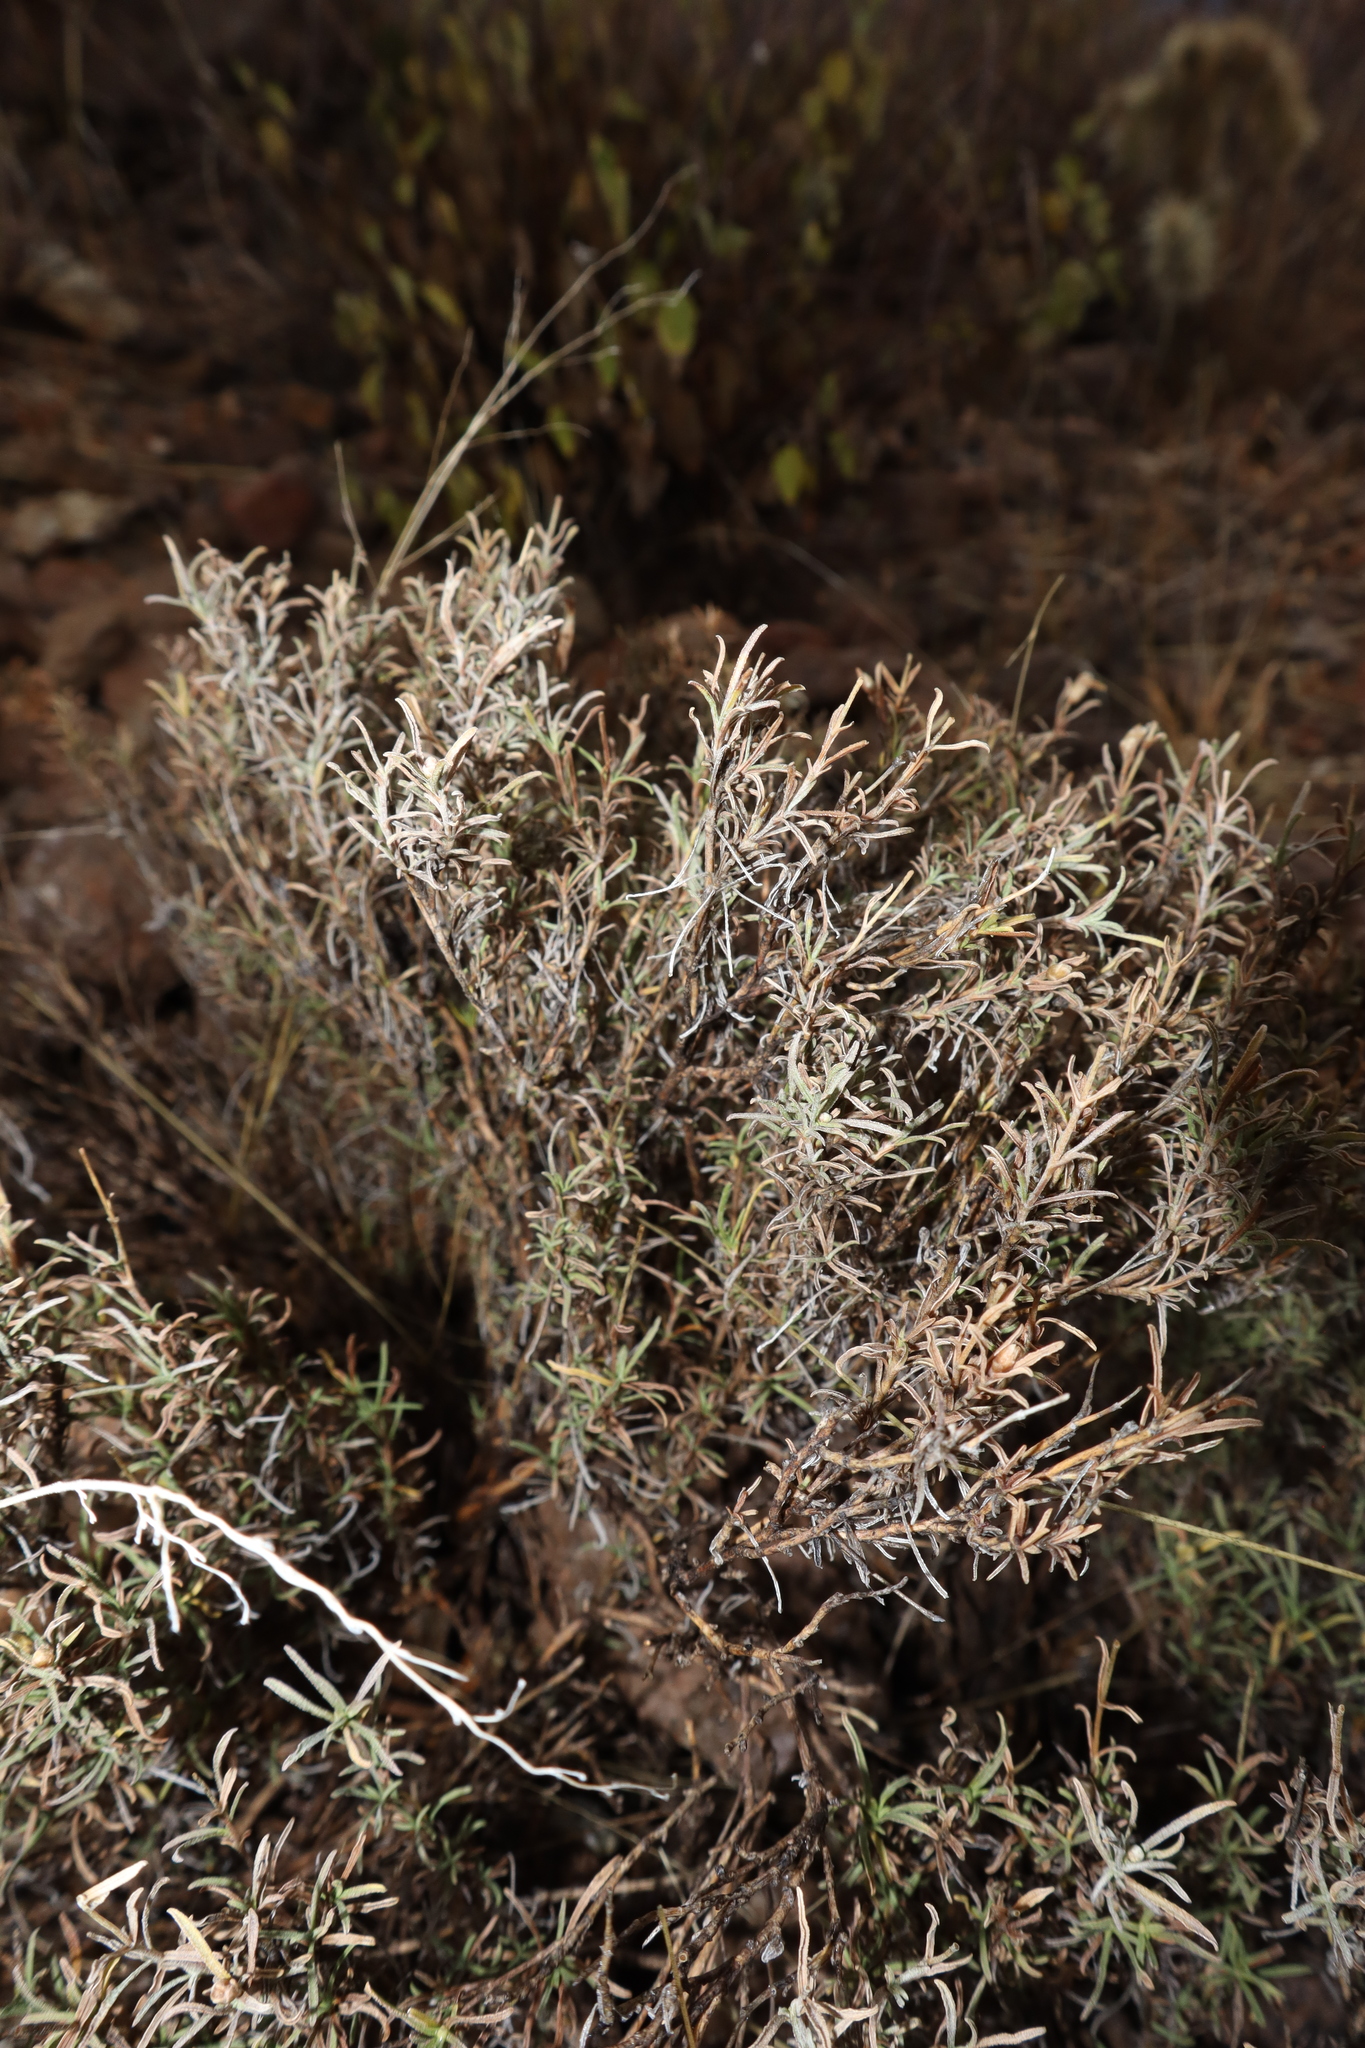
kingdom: Plantae
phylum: Tracheophyta
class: Magnoliopsida
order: Asterales
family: Asteraceae
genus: Zinnia
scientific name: Zinnia acerosa
